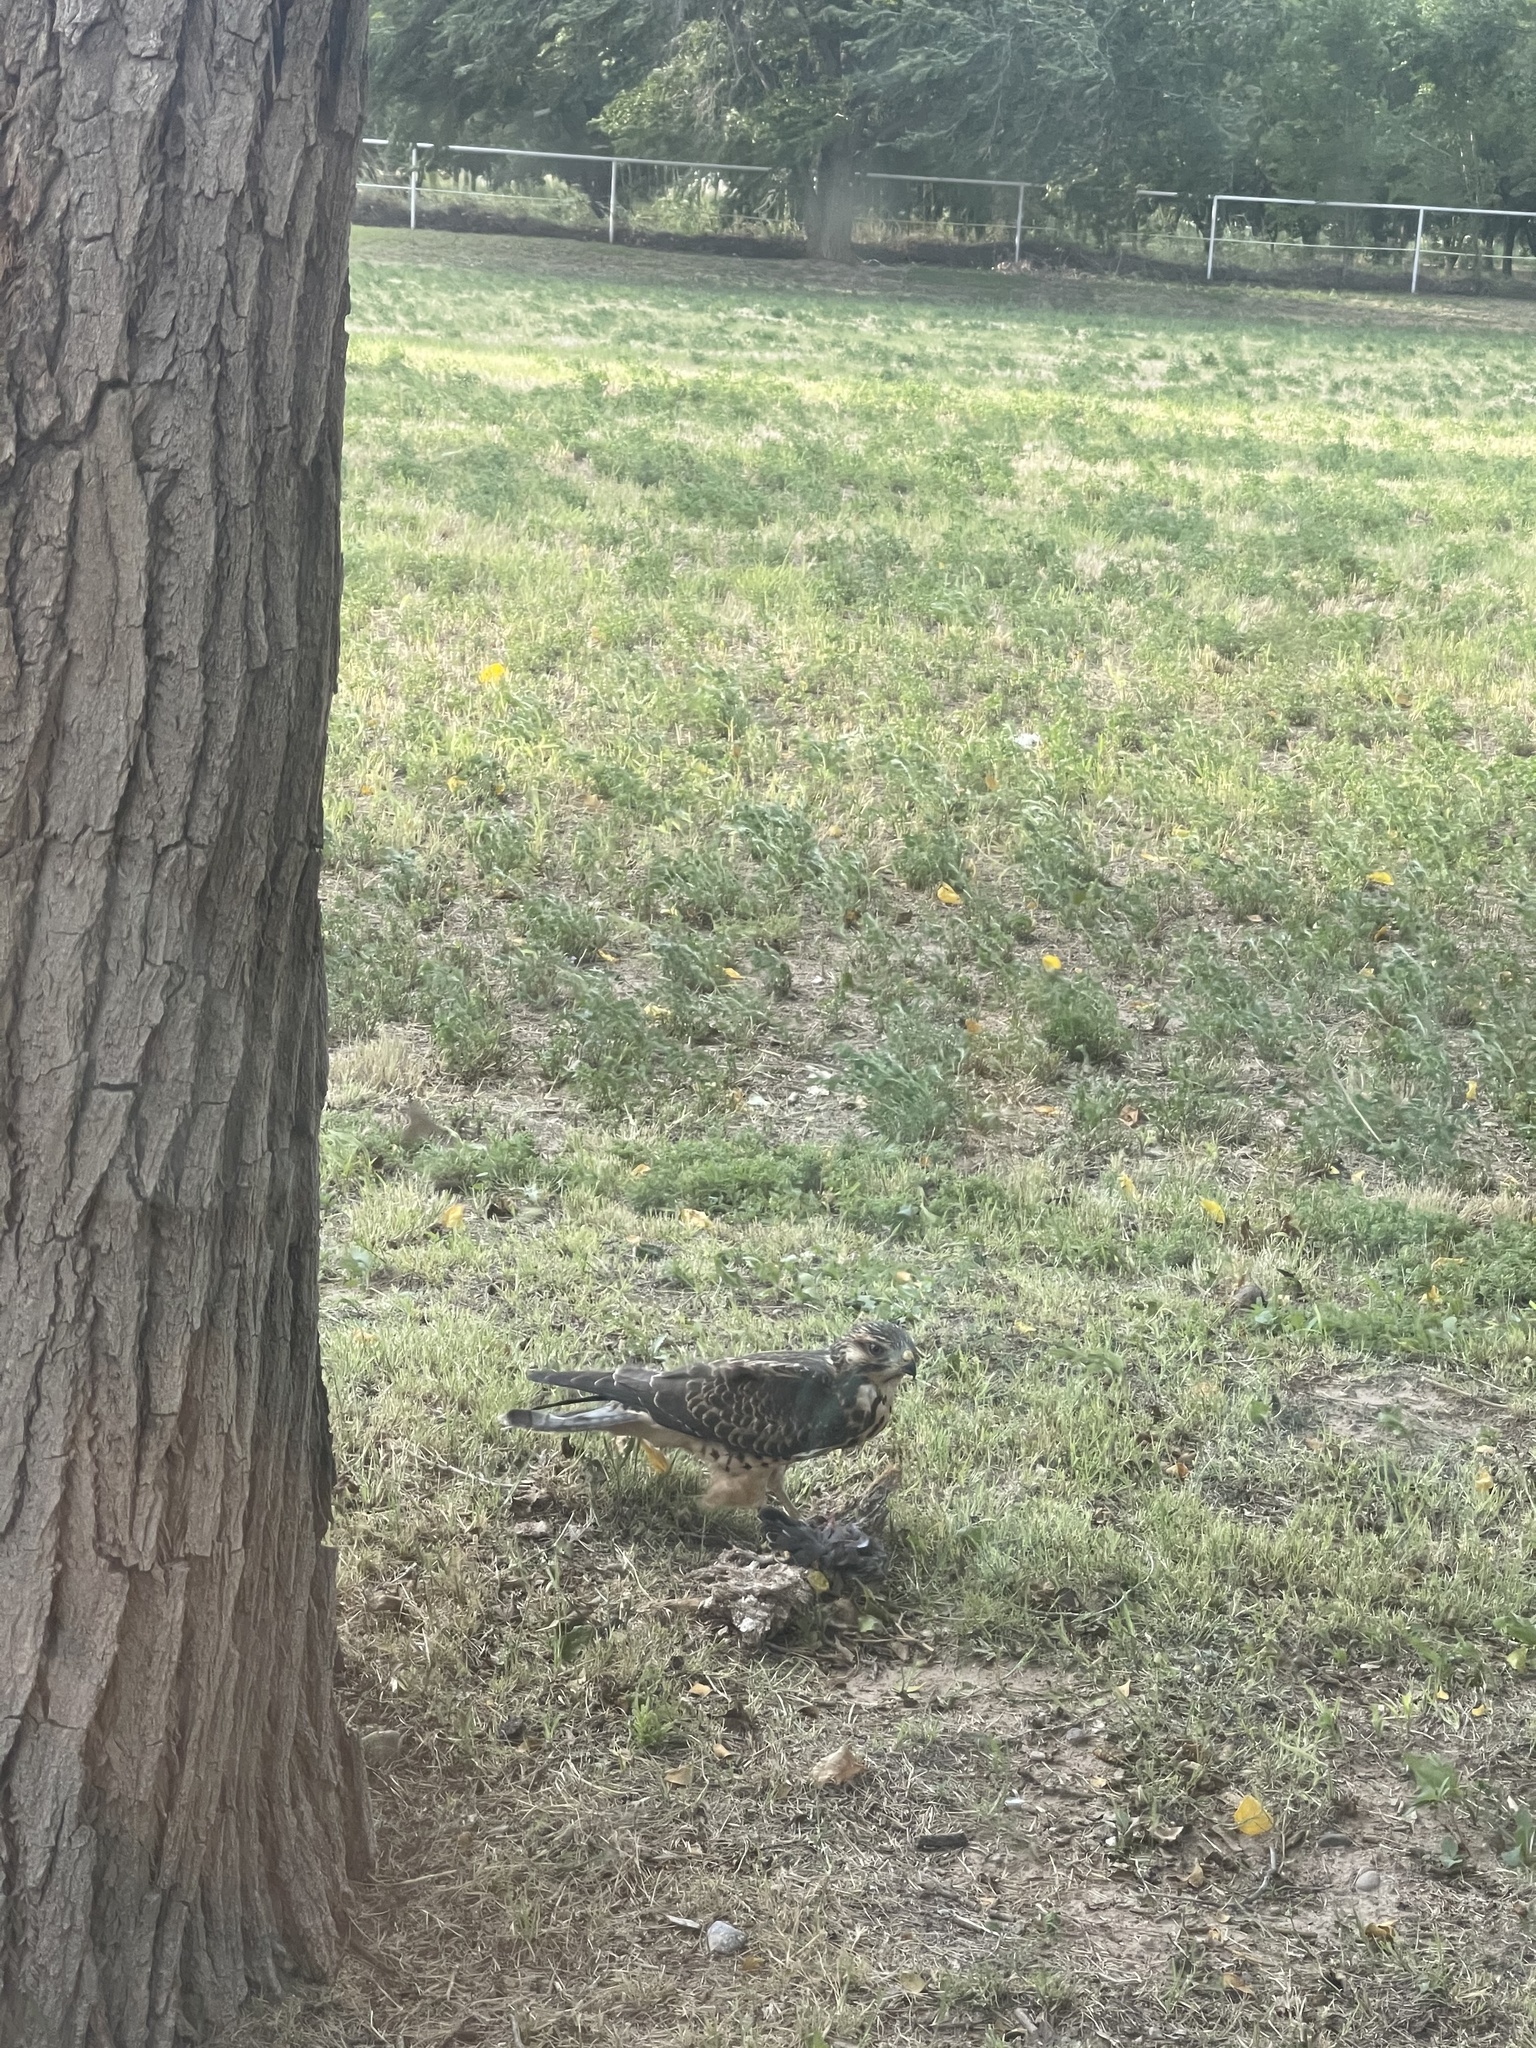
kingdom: Animalia
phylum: Chordata
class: Aves
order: Accipitriformes
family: Accipitridae
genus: Buteo
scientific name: Buteo swainsoni
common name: Swainson's hawk
